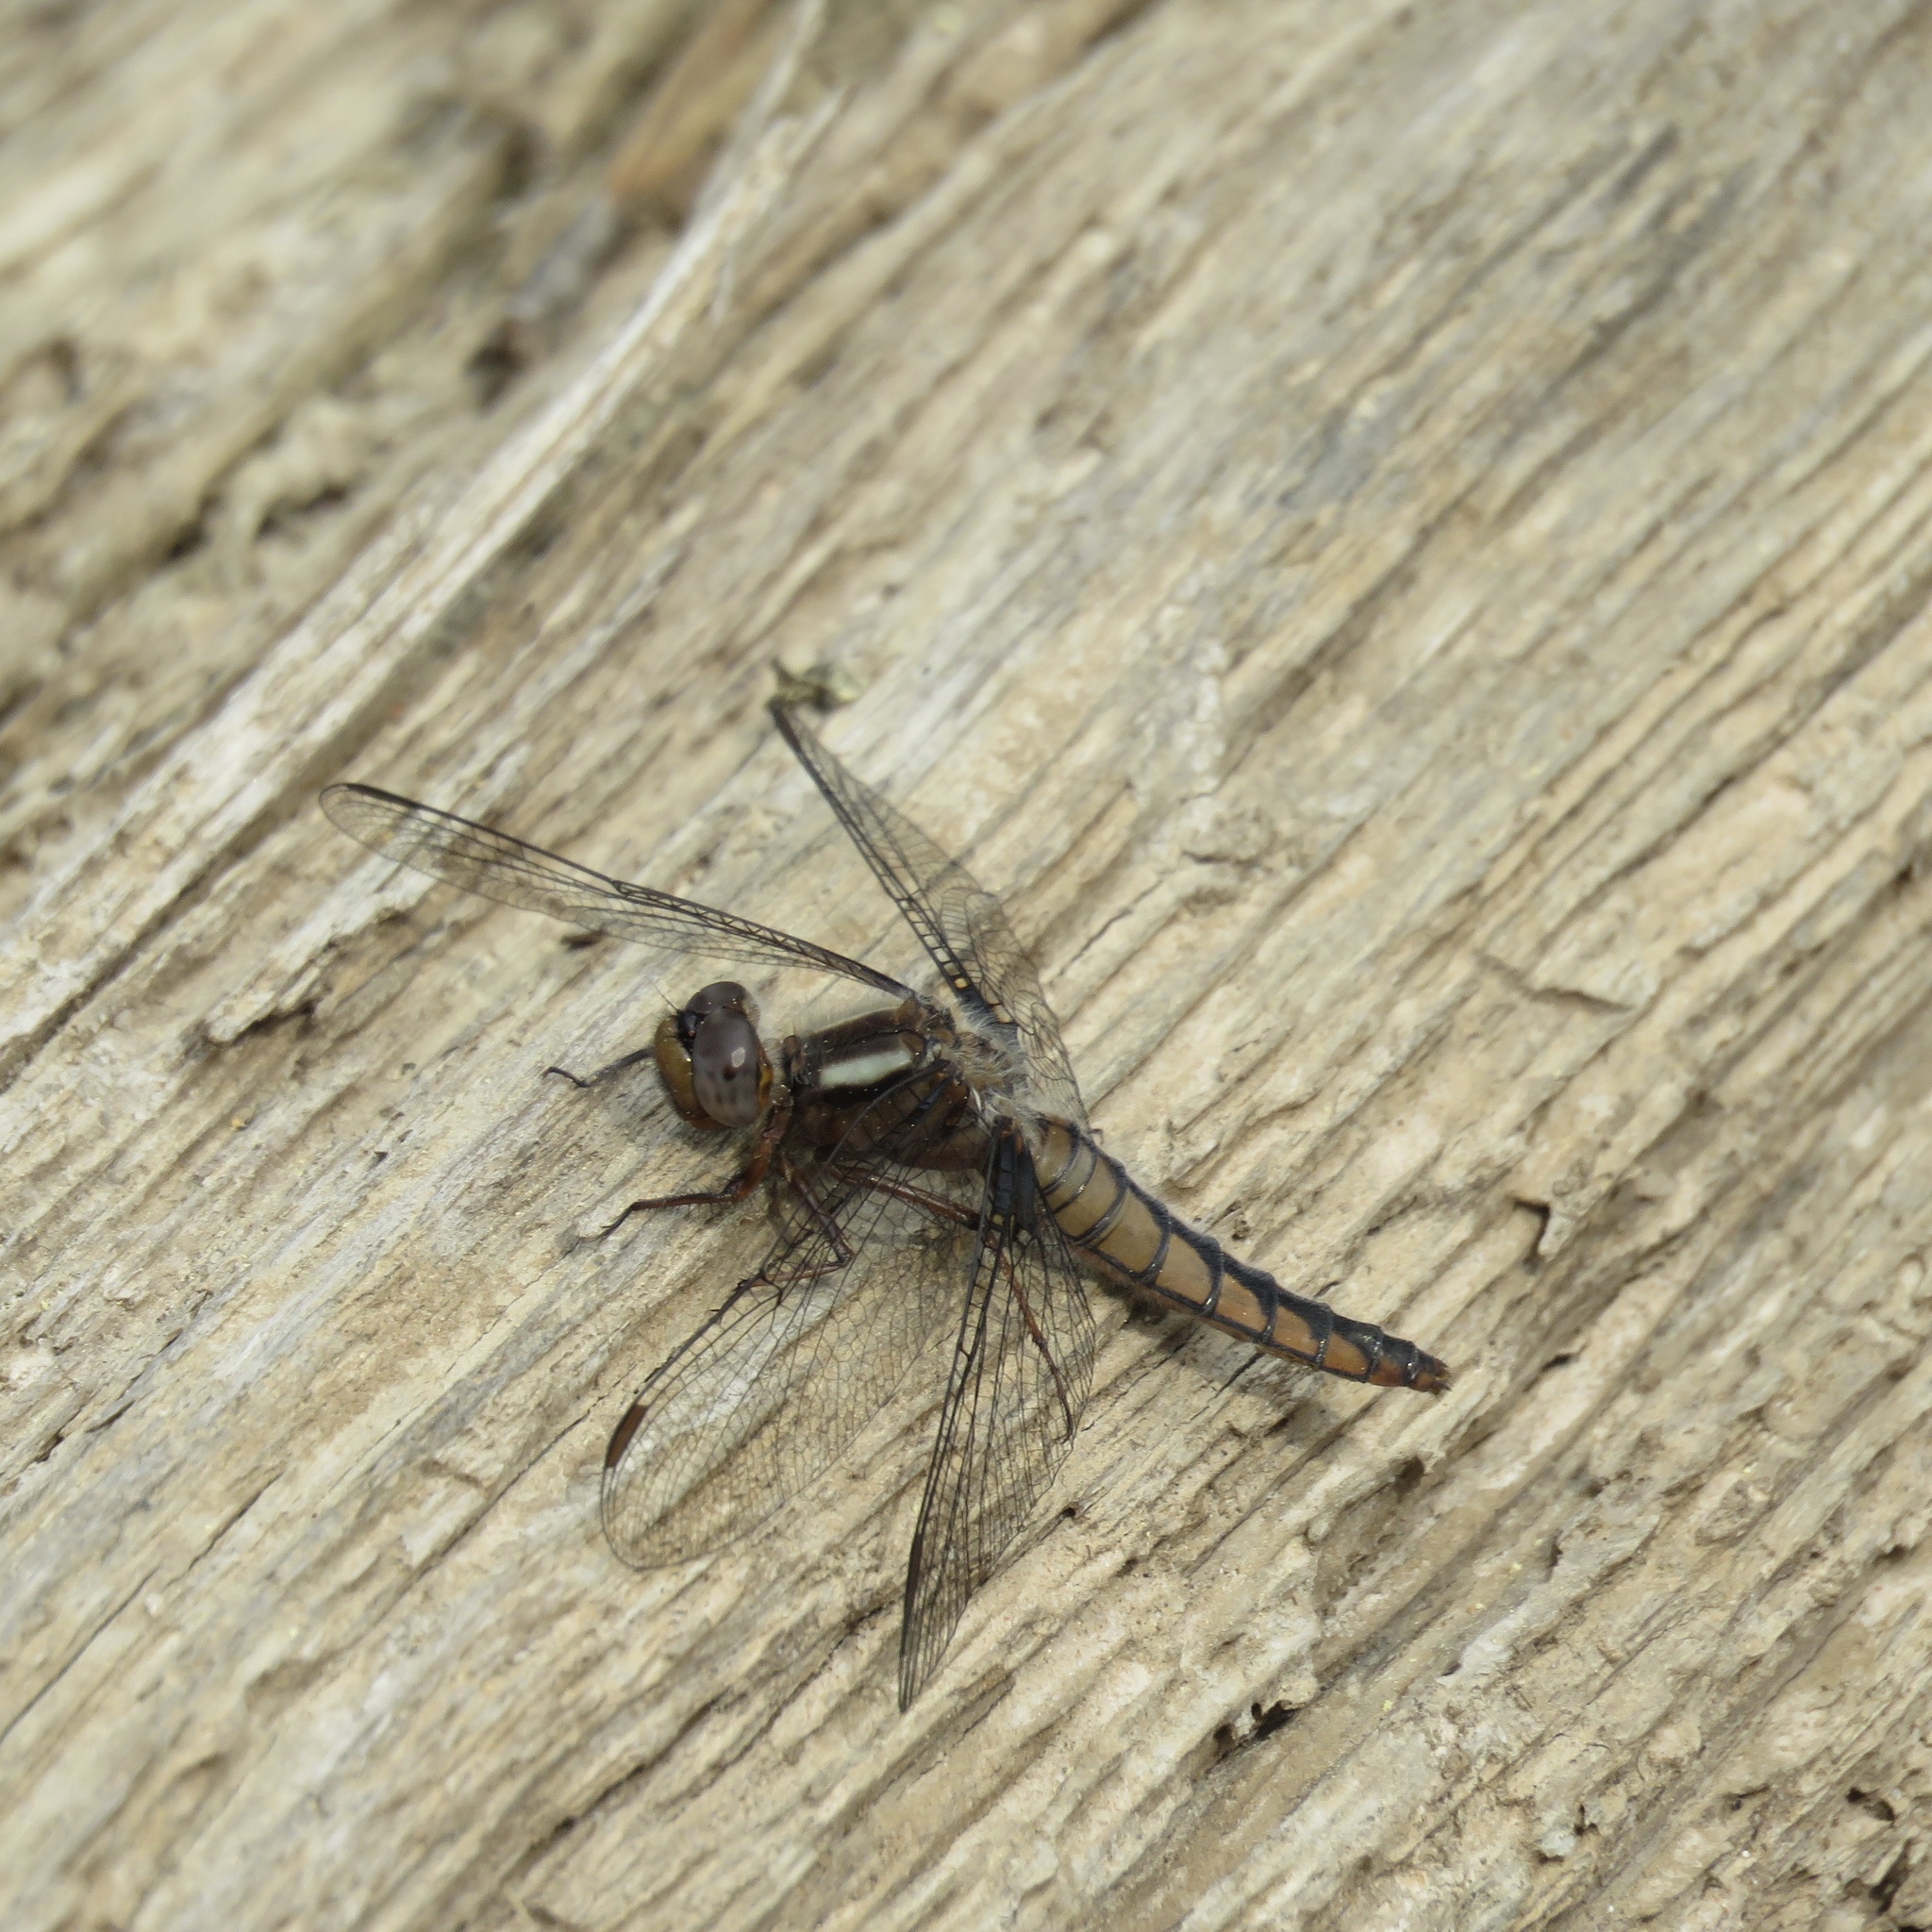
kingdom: Animalia
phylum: Arthropoda
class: Insecta
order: Odonata
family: Libellulidae
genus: Ladona
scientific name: Ladona deplanata
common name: Blue corporal
